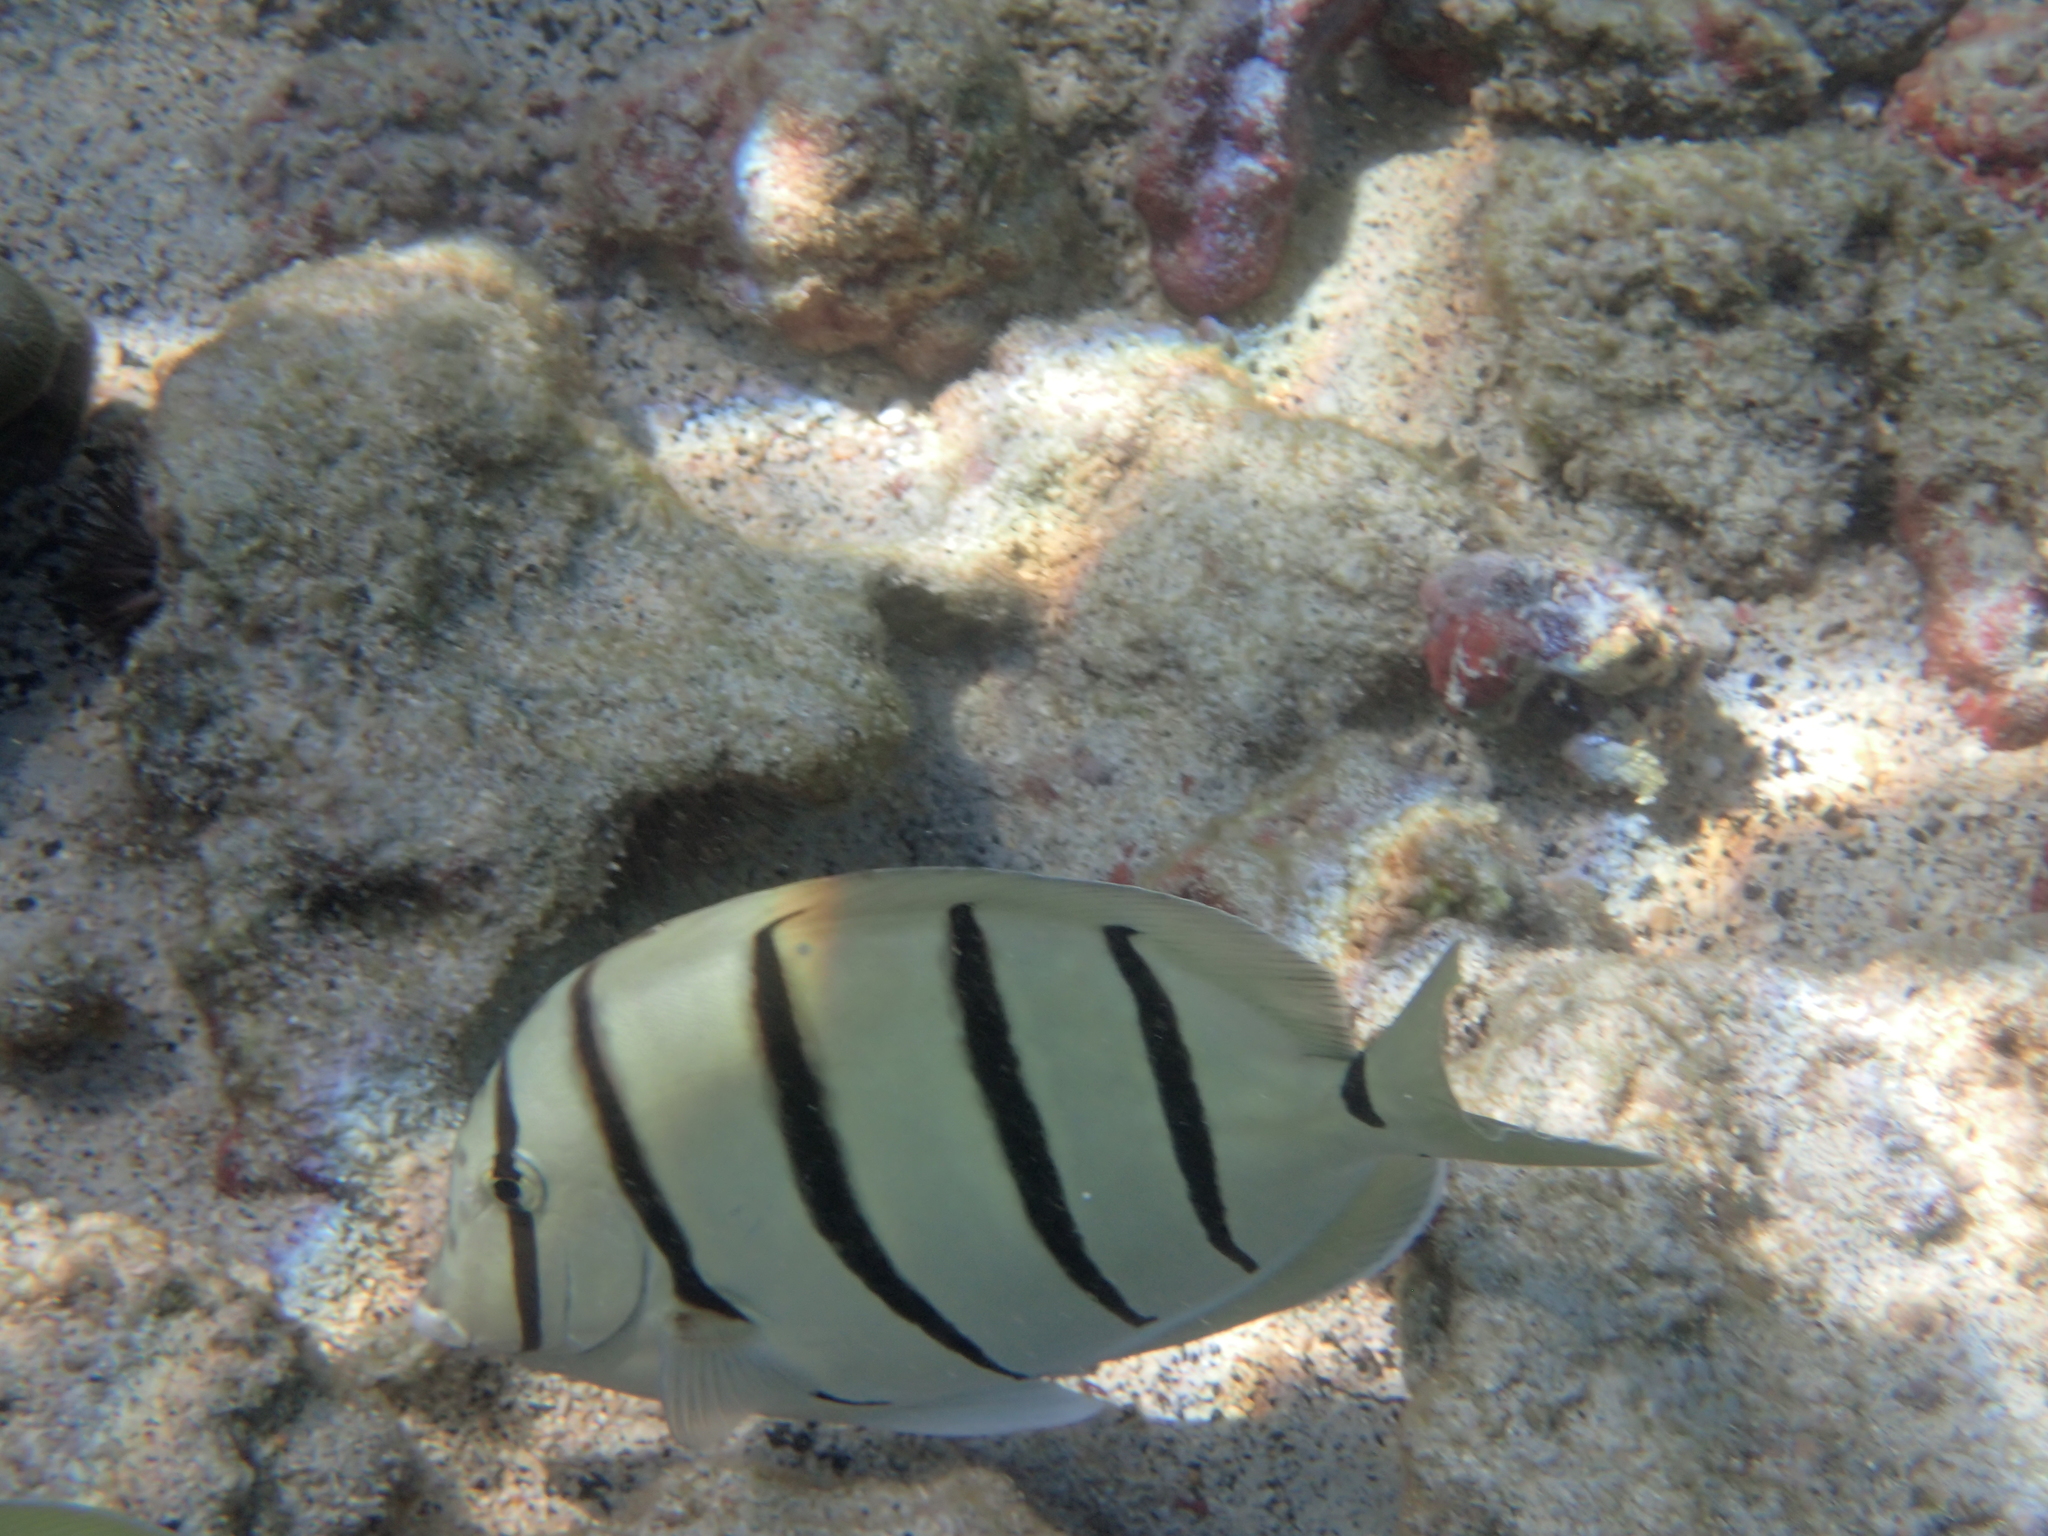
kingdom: Animalia
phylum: Chordata
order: Perciformes
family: Acanthuridae
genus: Acanthurus
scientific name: Acanthurus triostegus
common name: Convict surgeonfish
